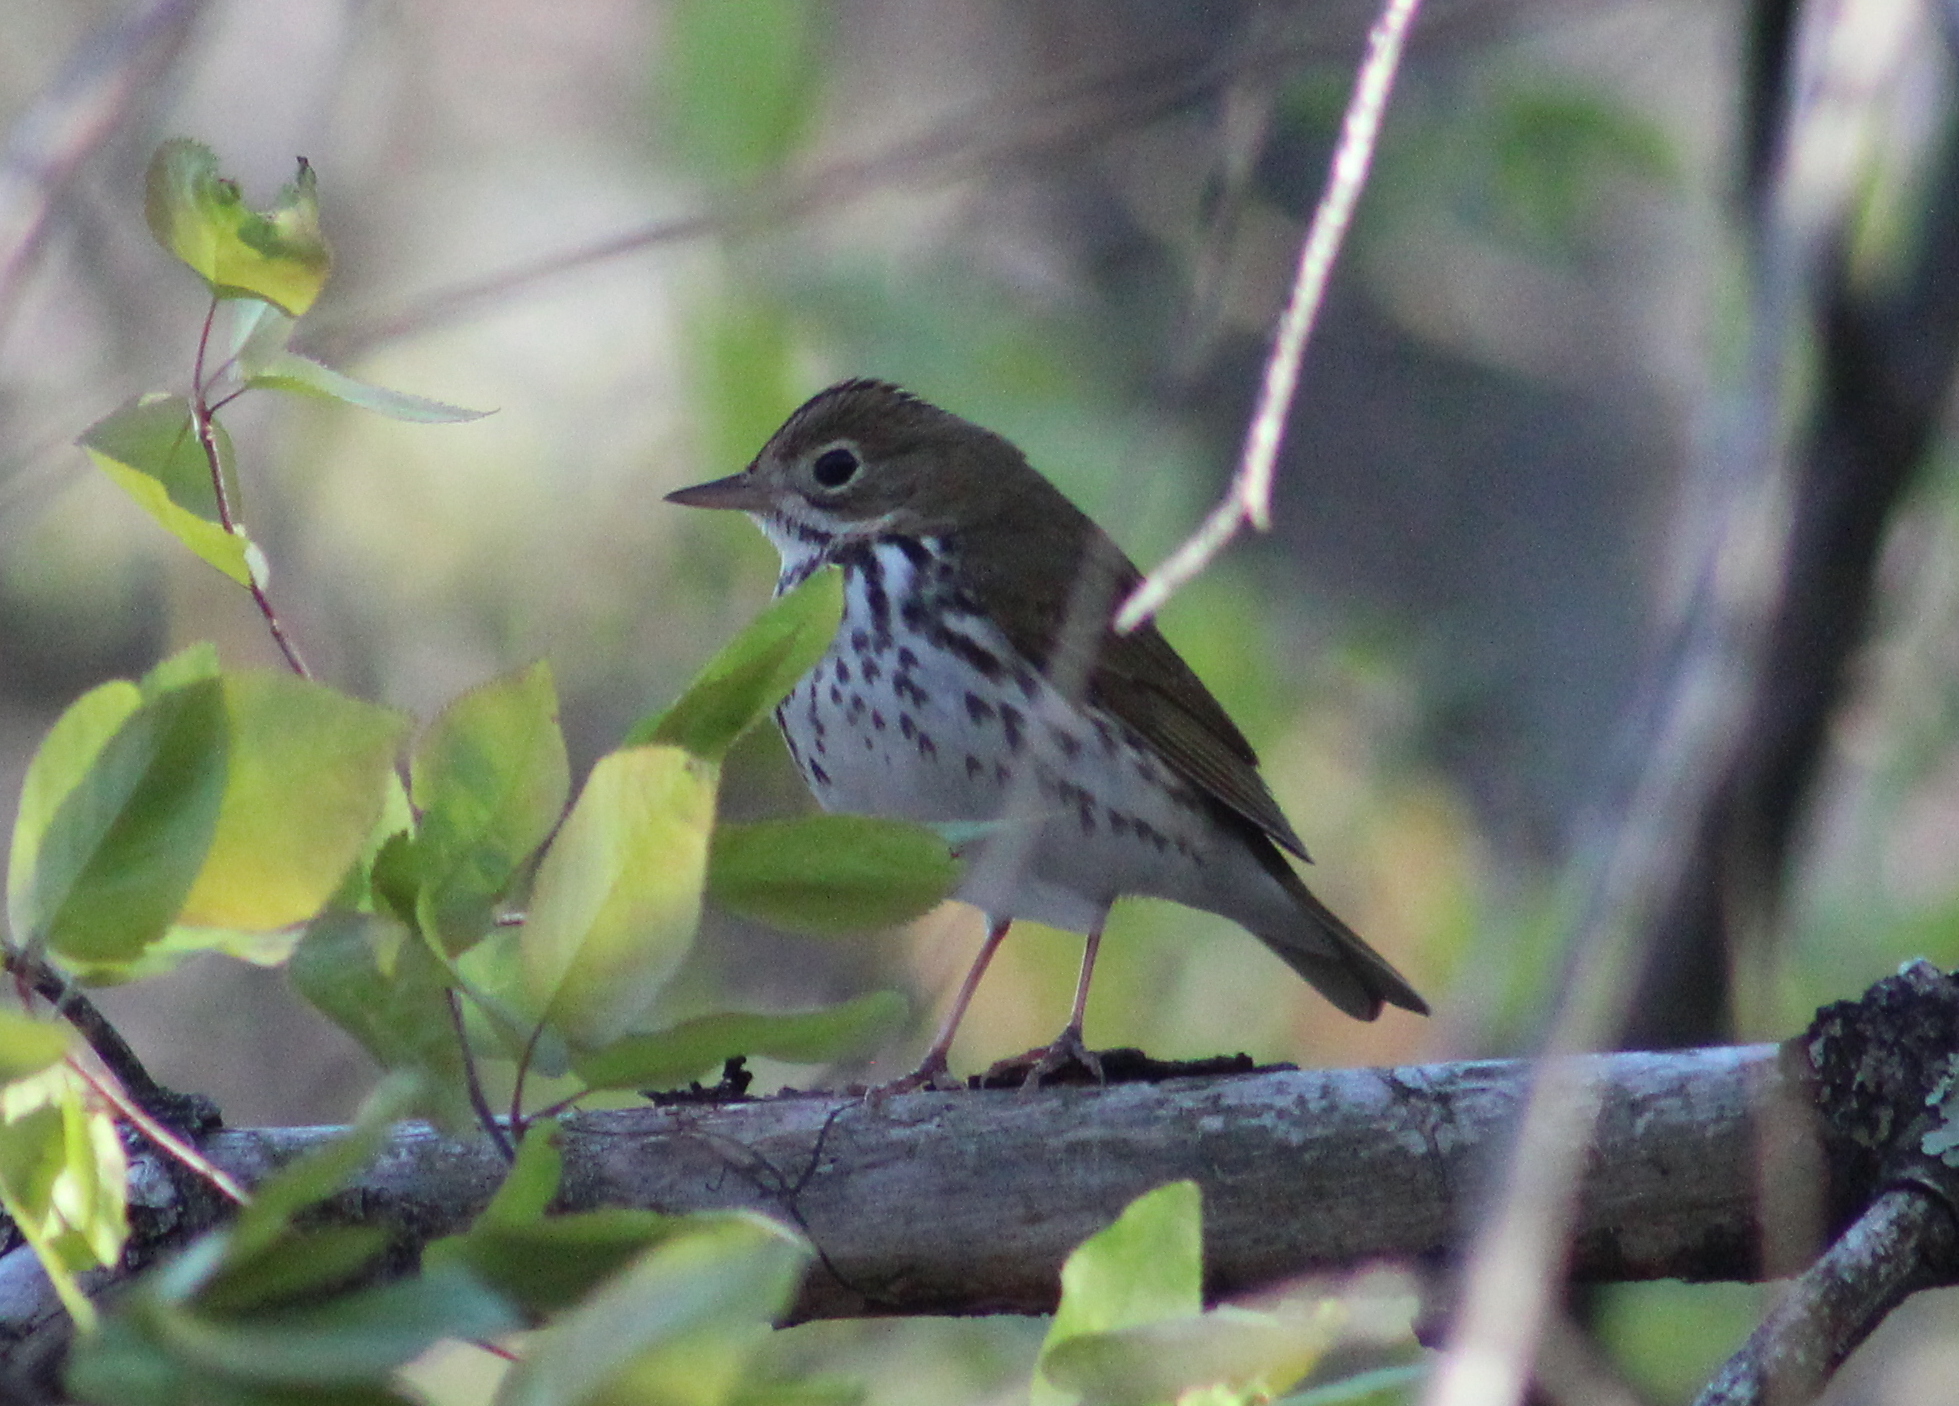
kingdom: Animalia
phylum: Chordata
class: Aves
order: Passeriformes
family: Parulidae
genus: Seiurus
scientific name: Seiurus aurocapilla
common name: Ovenbird
